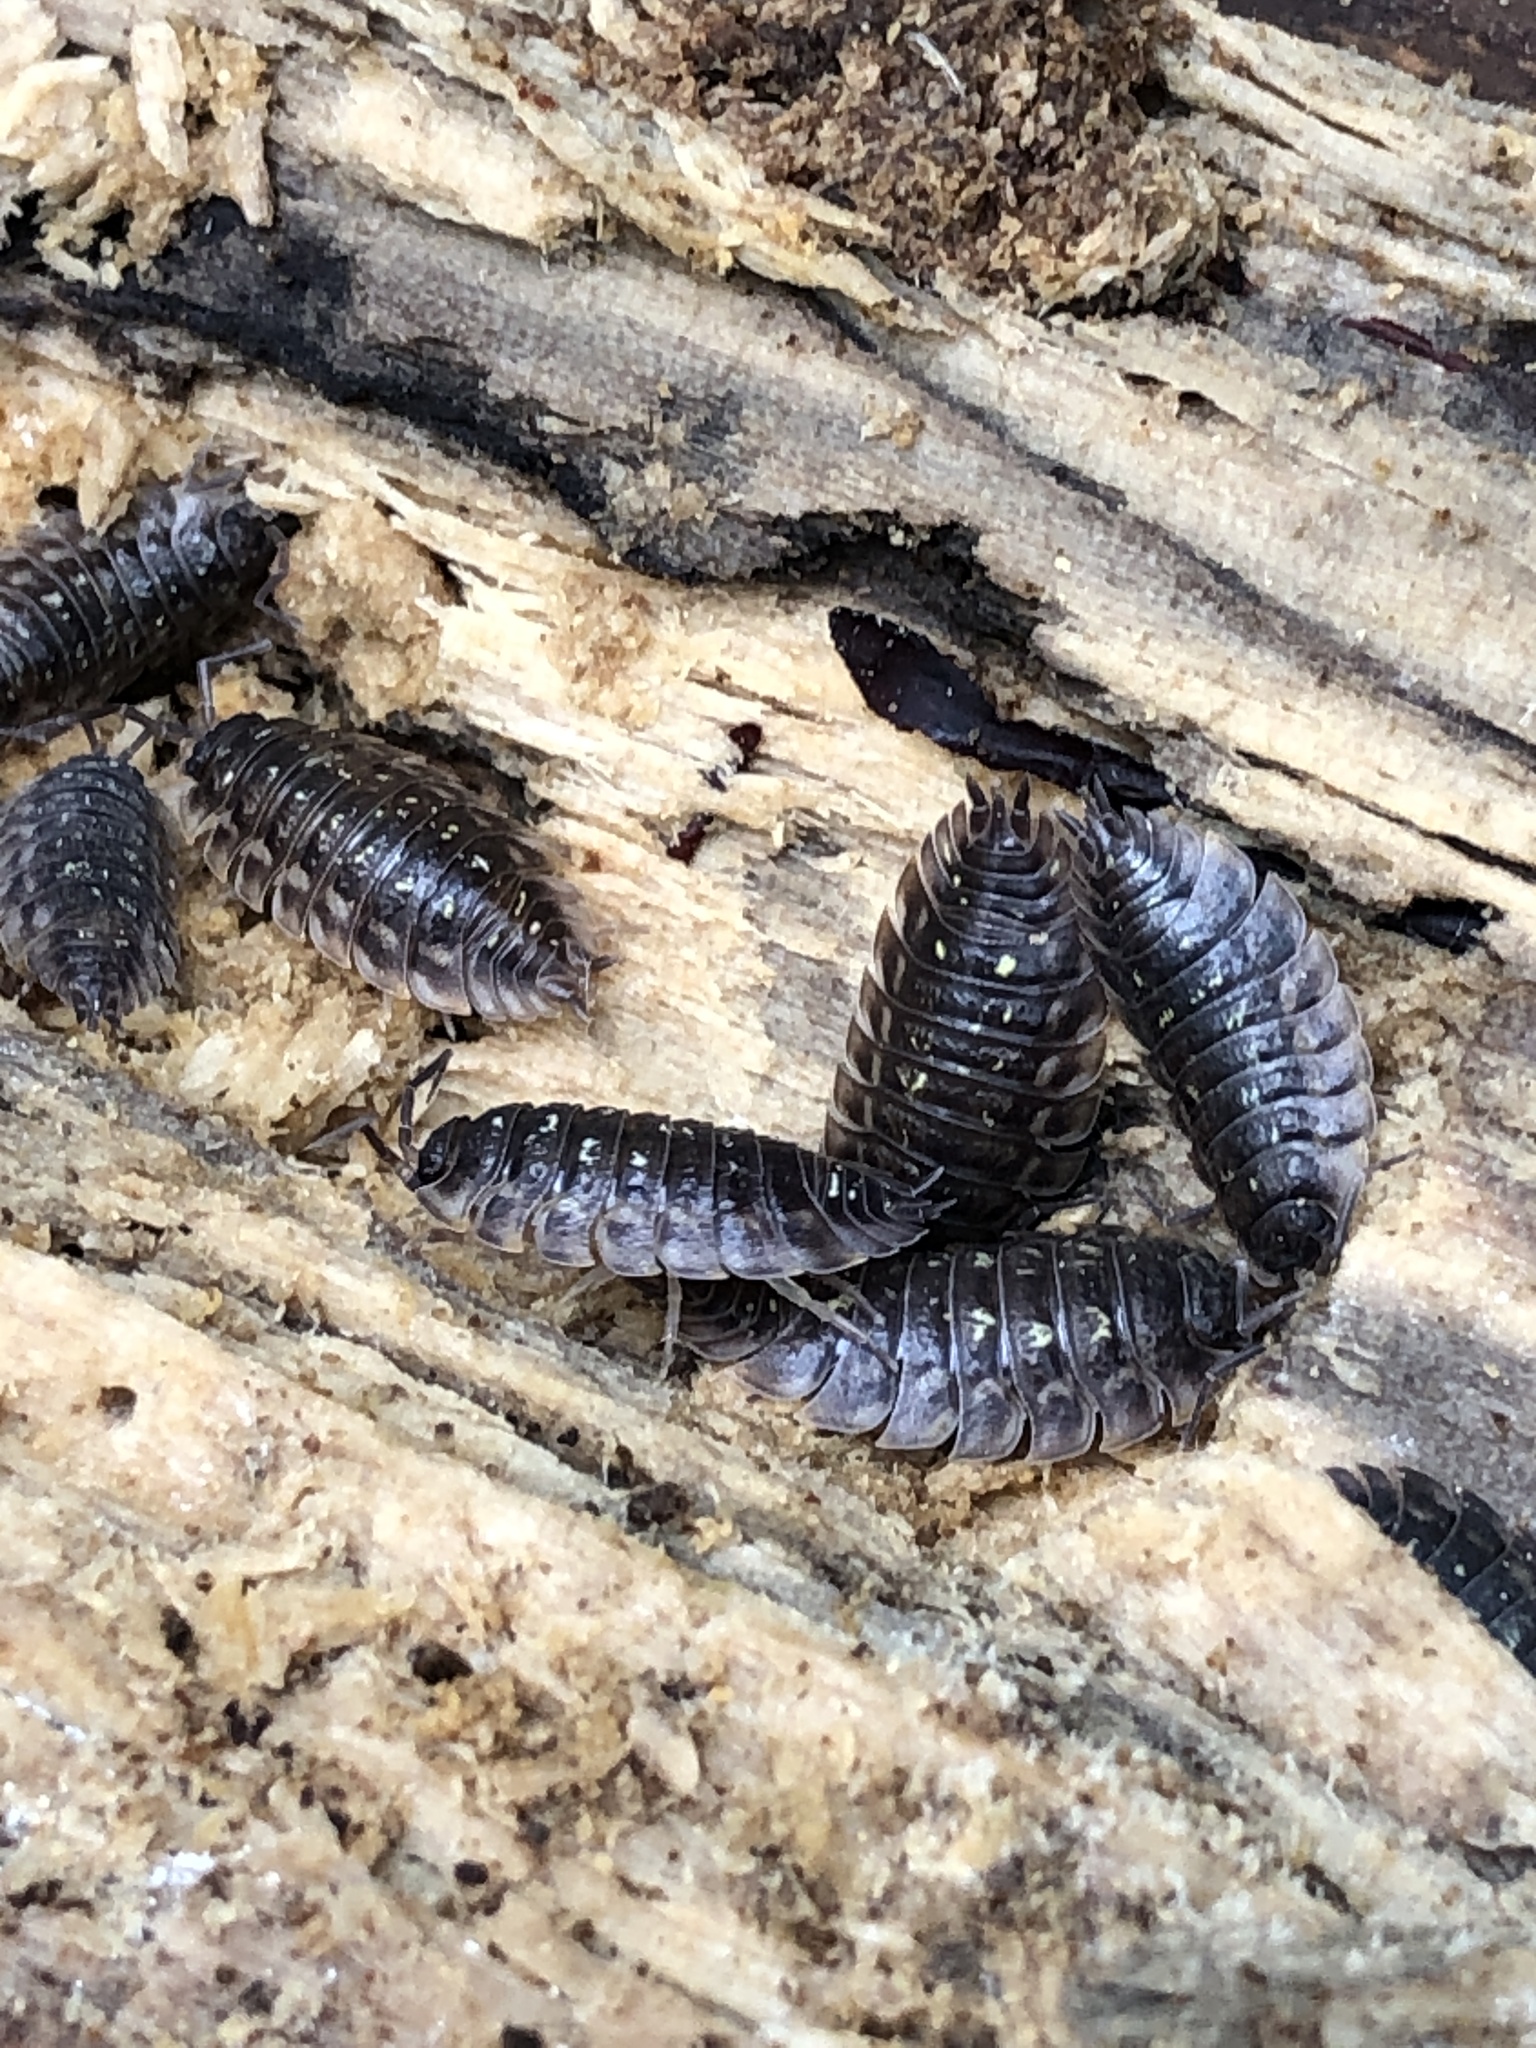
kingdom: Animalia
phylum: Arthropoda
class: Malacostraca
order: Isopoda
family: Oniscidae
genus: Oniscus
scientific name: Oniscus asellus
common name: Common shiny woodlouse
